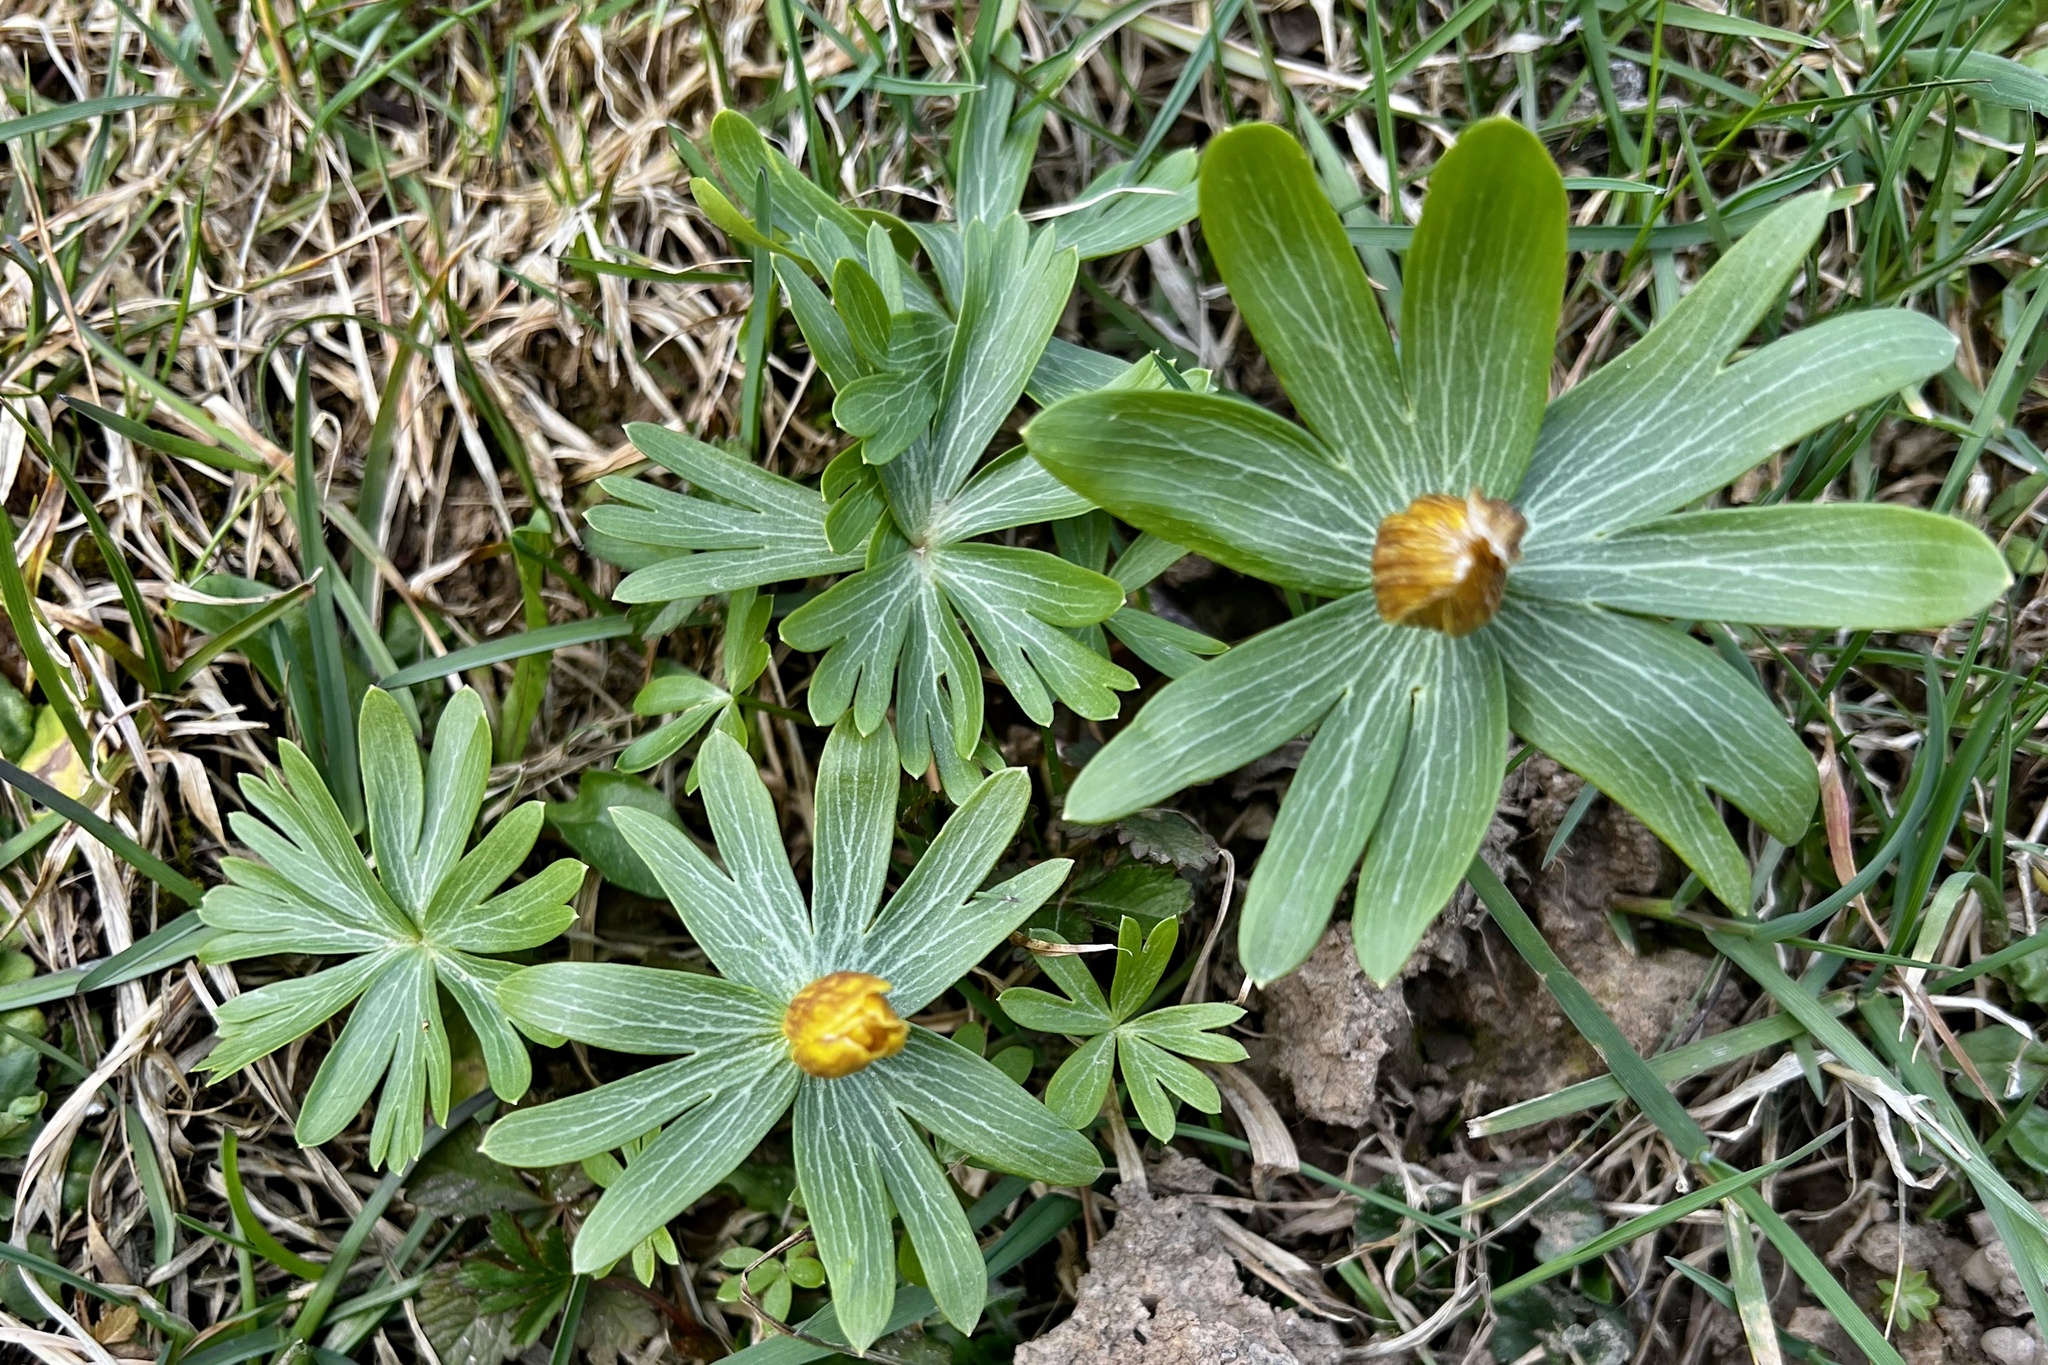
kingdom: Plantae
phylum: Tracheophyta
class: Magnoliopsida
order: Ranunculales
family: Ranunculaceae
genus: Eranthis
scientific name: Eranthis hyemalis
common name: Winter aconite
